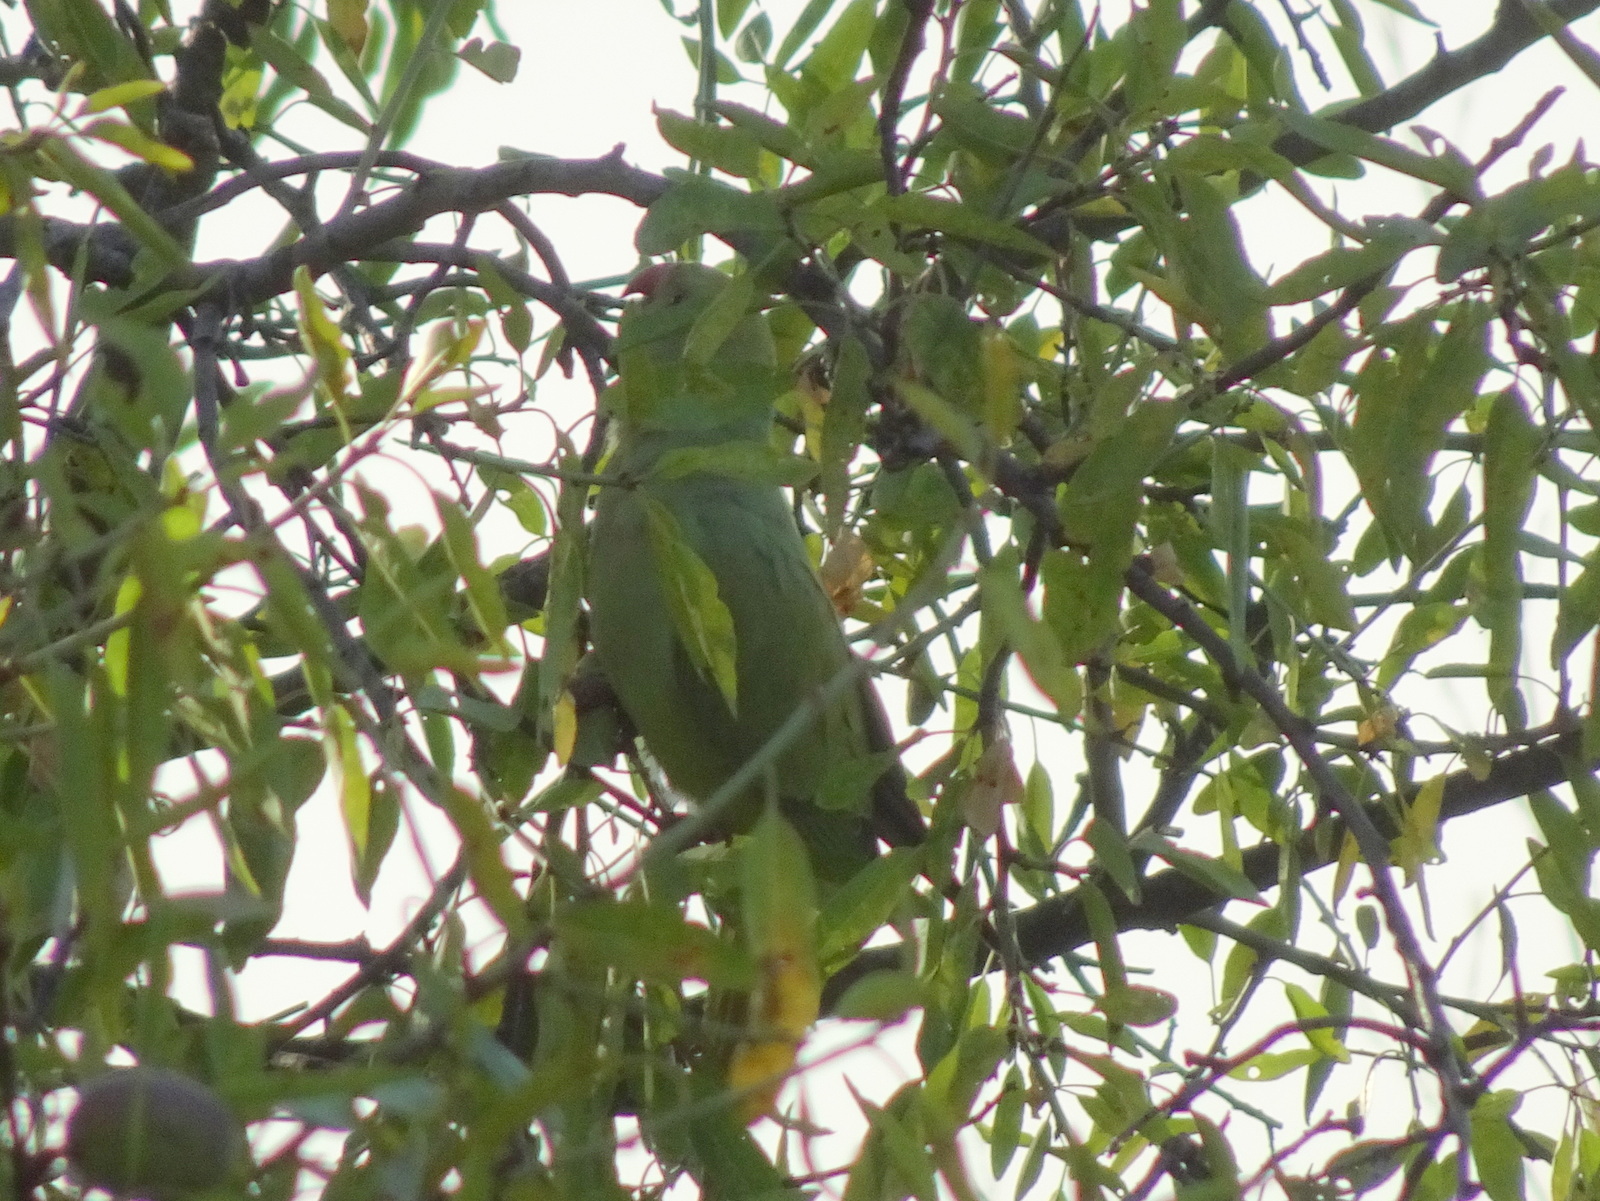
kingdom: Animalia
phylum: Chordata
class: Aves
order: Psittaciformes
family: Psittacidae
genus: Psittacula
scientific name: Psittacula krameri
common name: Rose-ringed parakeet
